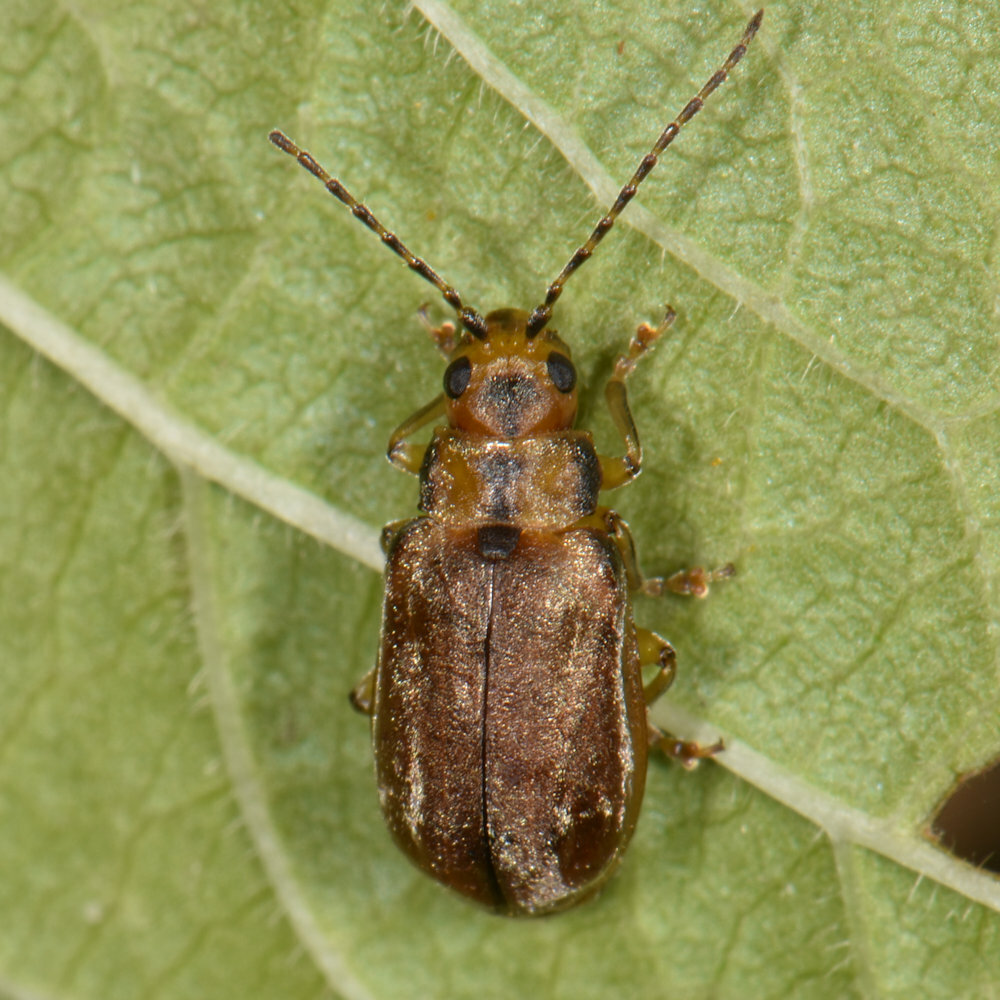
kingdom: Animalia
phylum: Arthropoda
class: Insecta
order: Coleoptera
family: Chrysomelidae
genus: Pyrrhalta
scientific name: Pyrrhalta viburni
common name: Guelder-rose leaf beetle
